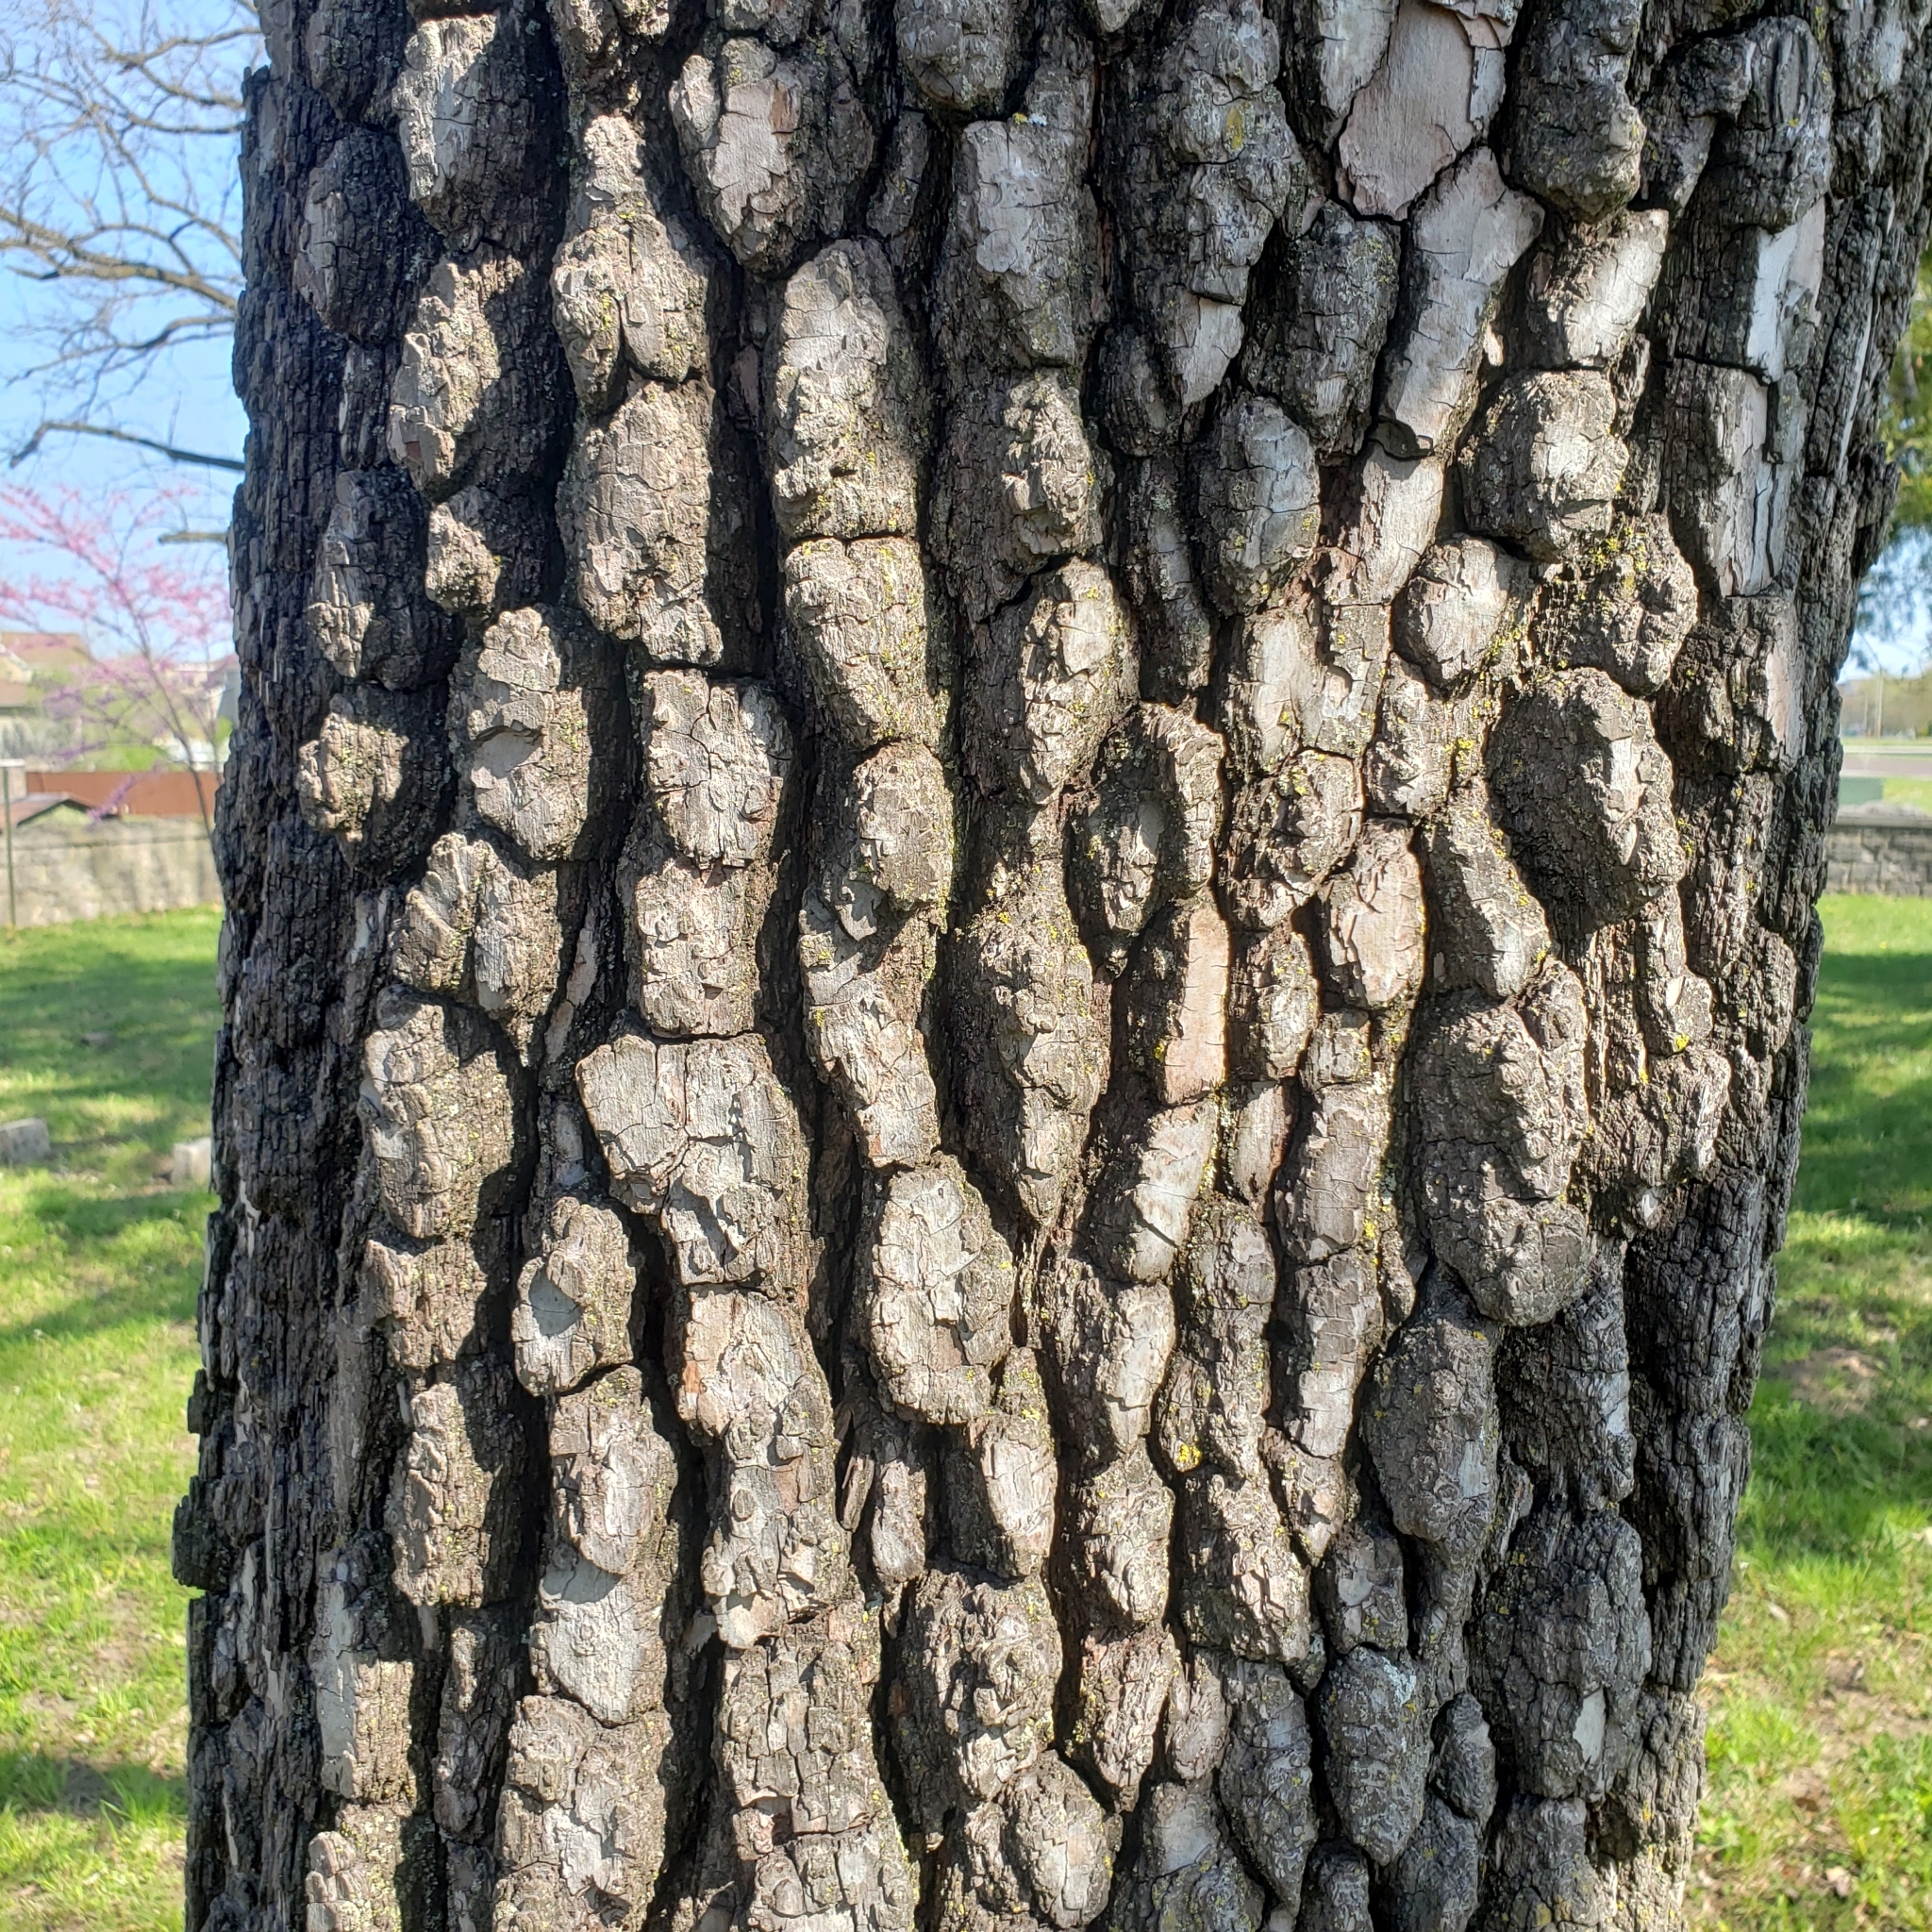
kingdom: Plantae
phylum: Tracheophyta
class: Magnoliopsida
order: Ericales
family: Ebenaceae
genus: Diospyros
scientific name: Diospyros virginiana
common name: Persimmon
